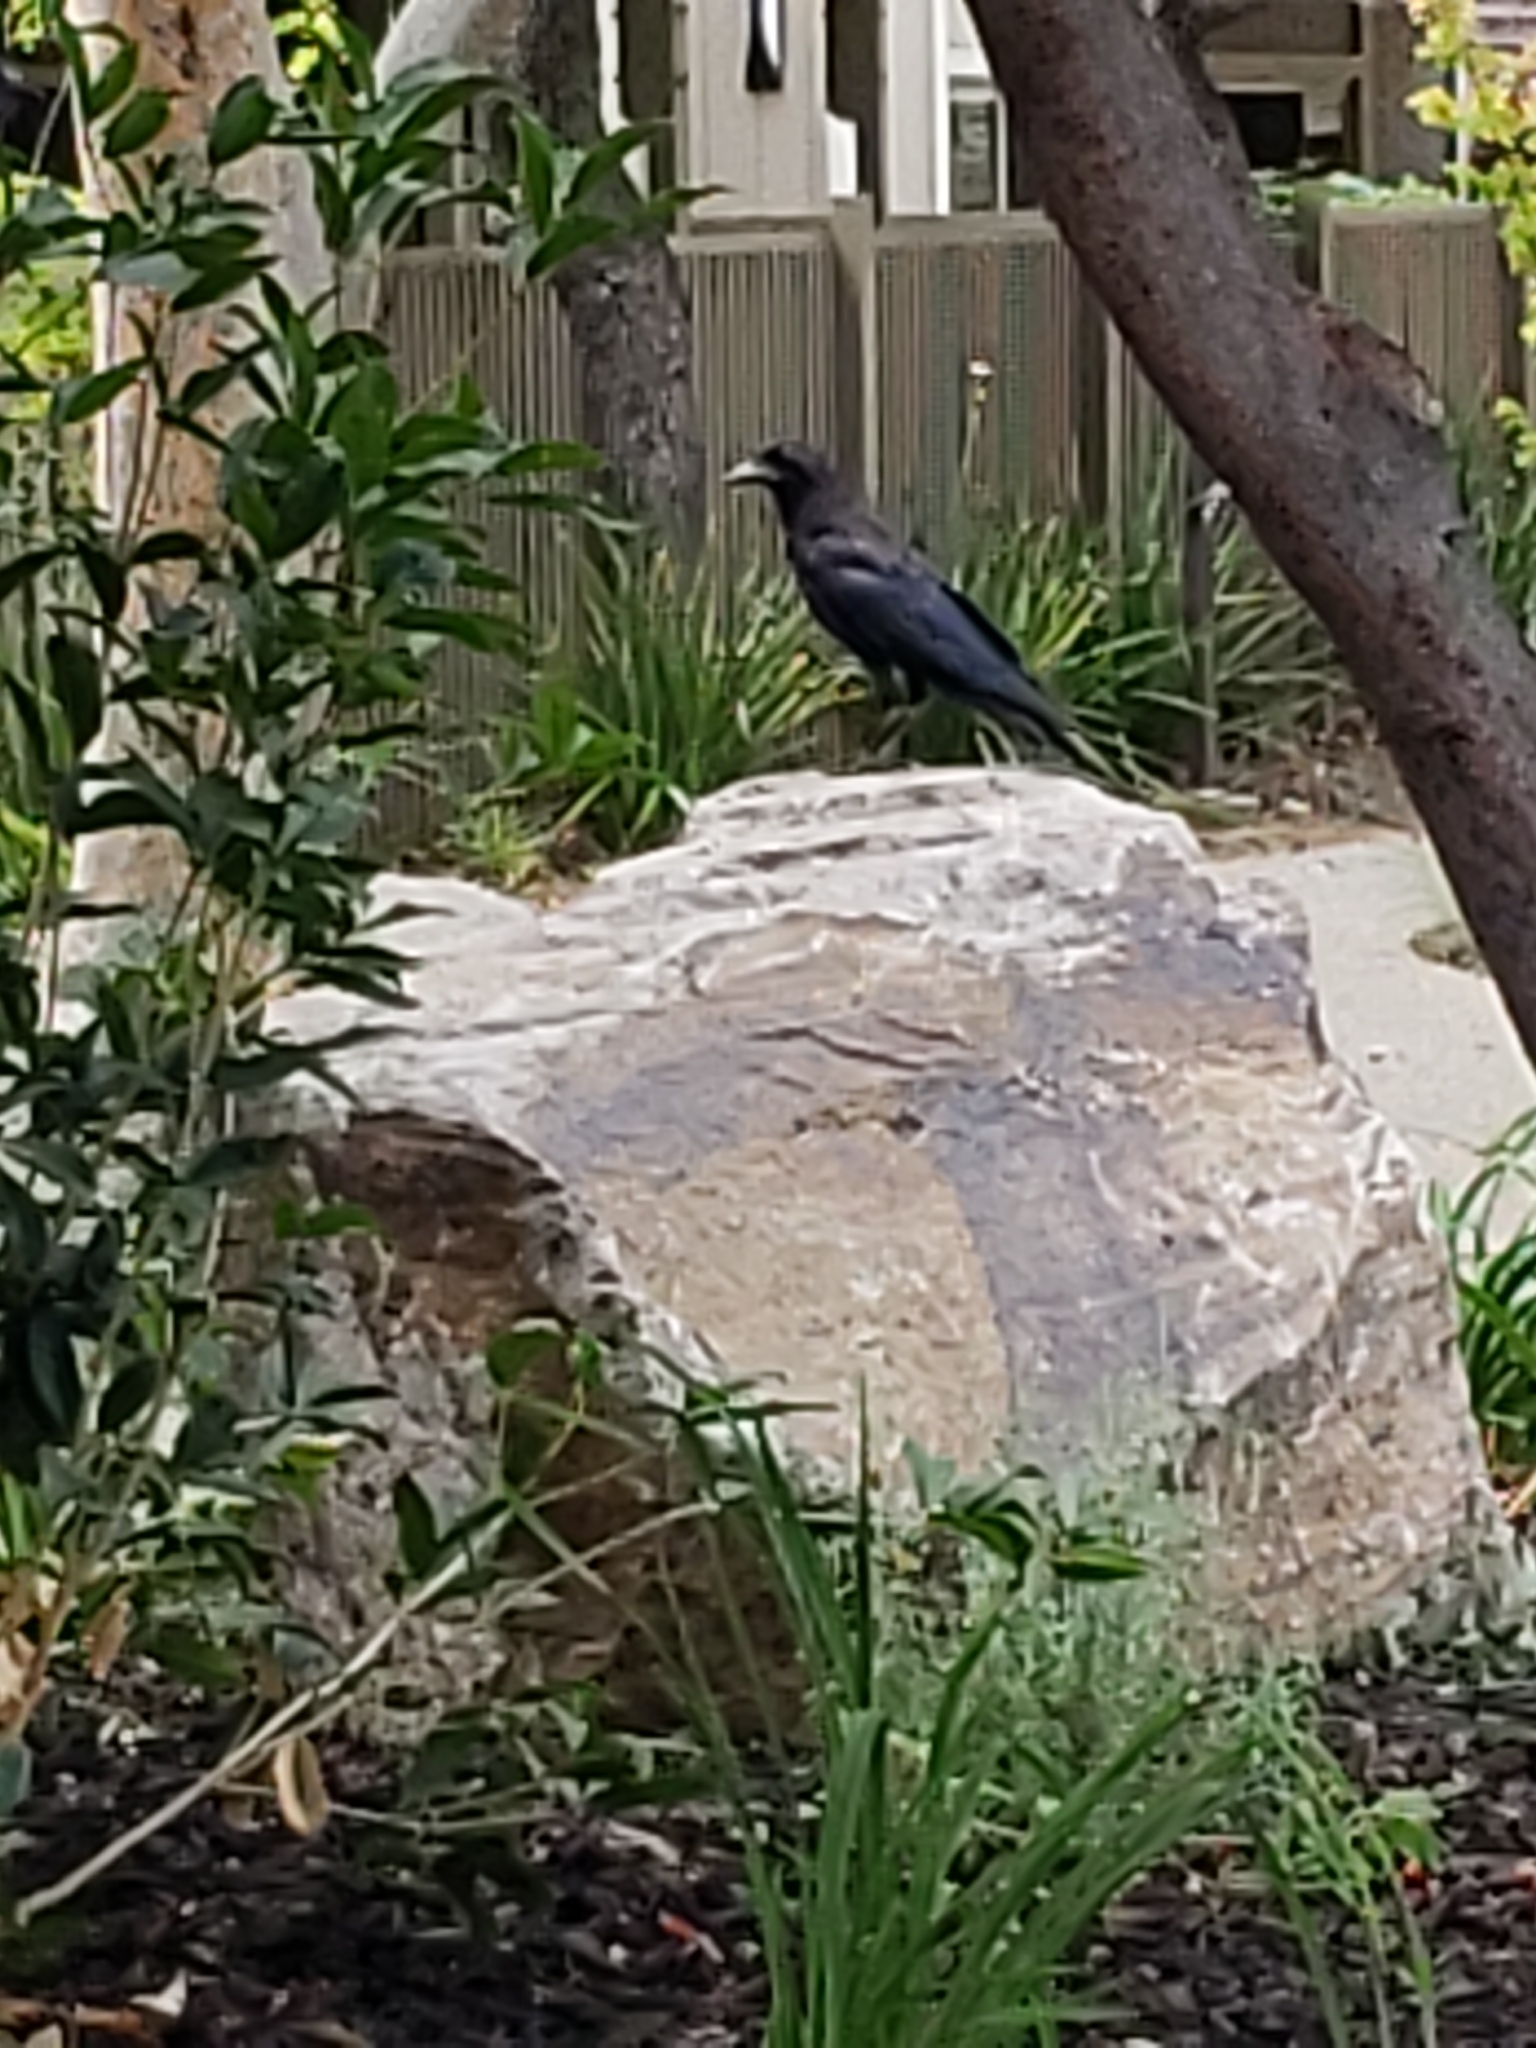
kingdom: Animalia
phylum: Chordata
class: Aves
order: Passeriformes
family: Corvidae
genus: Corvus
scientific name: Corvus brachyrhynchos
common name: American crow
